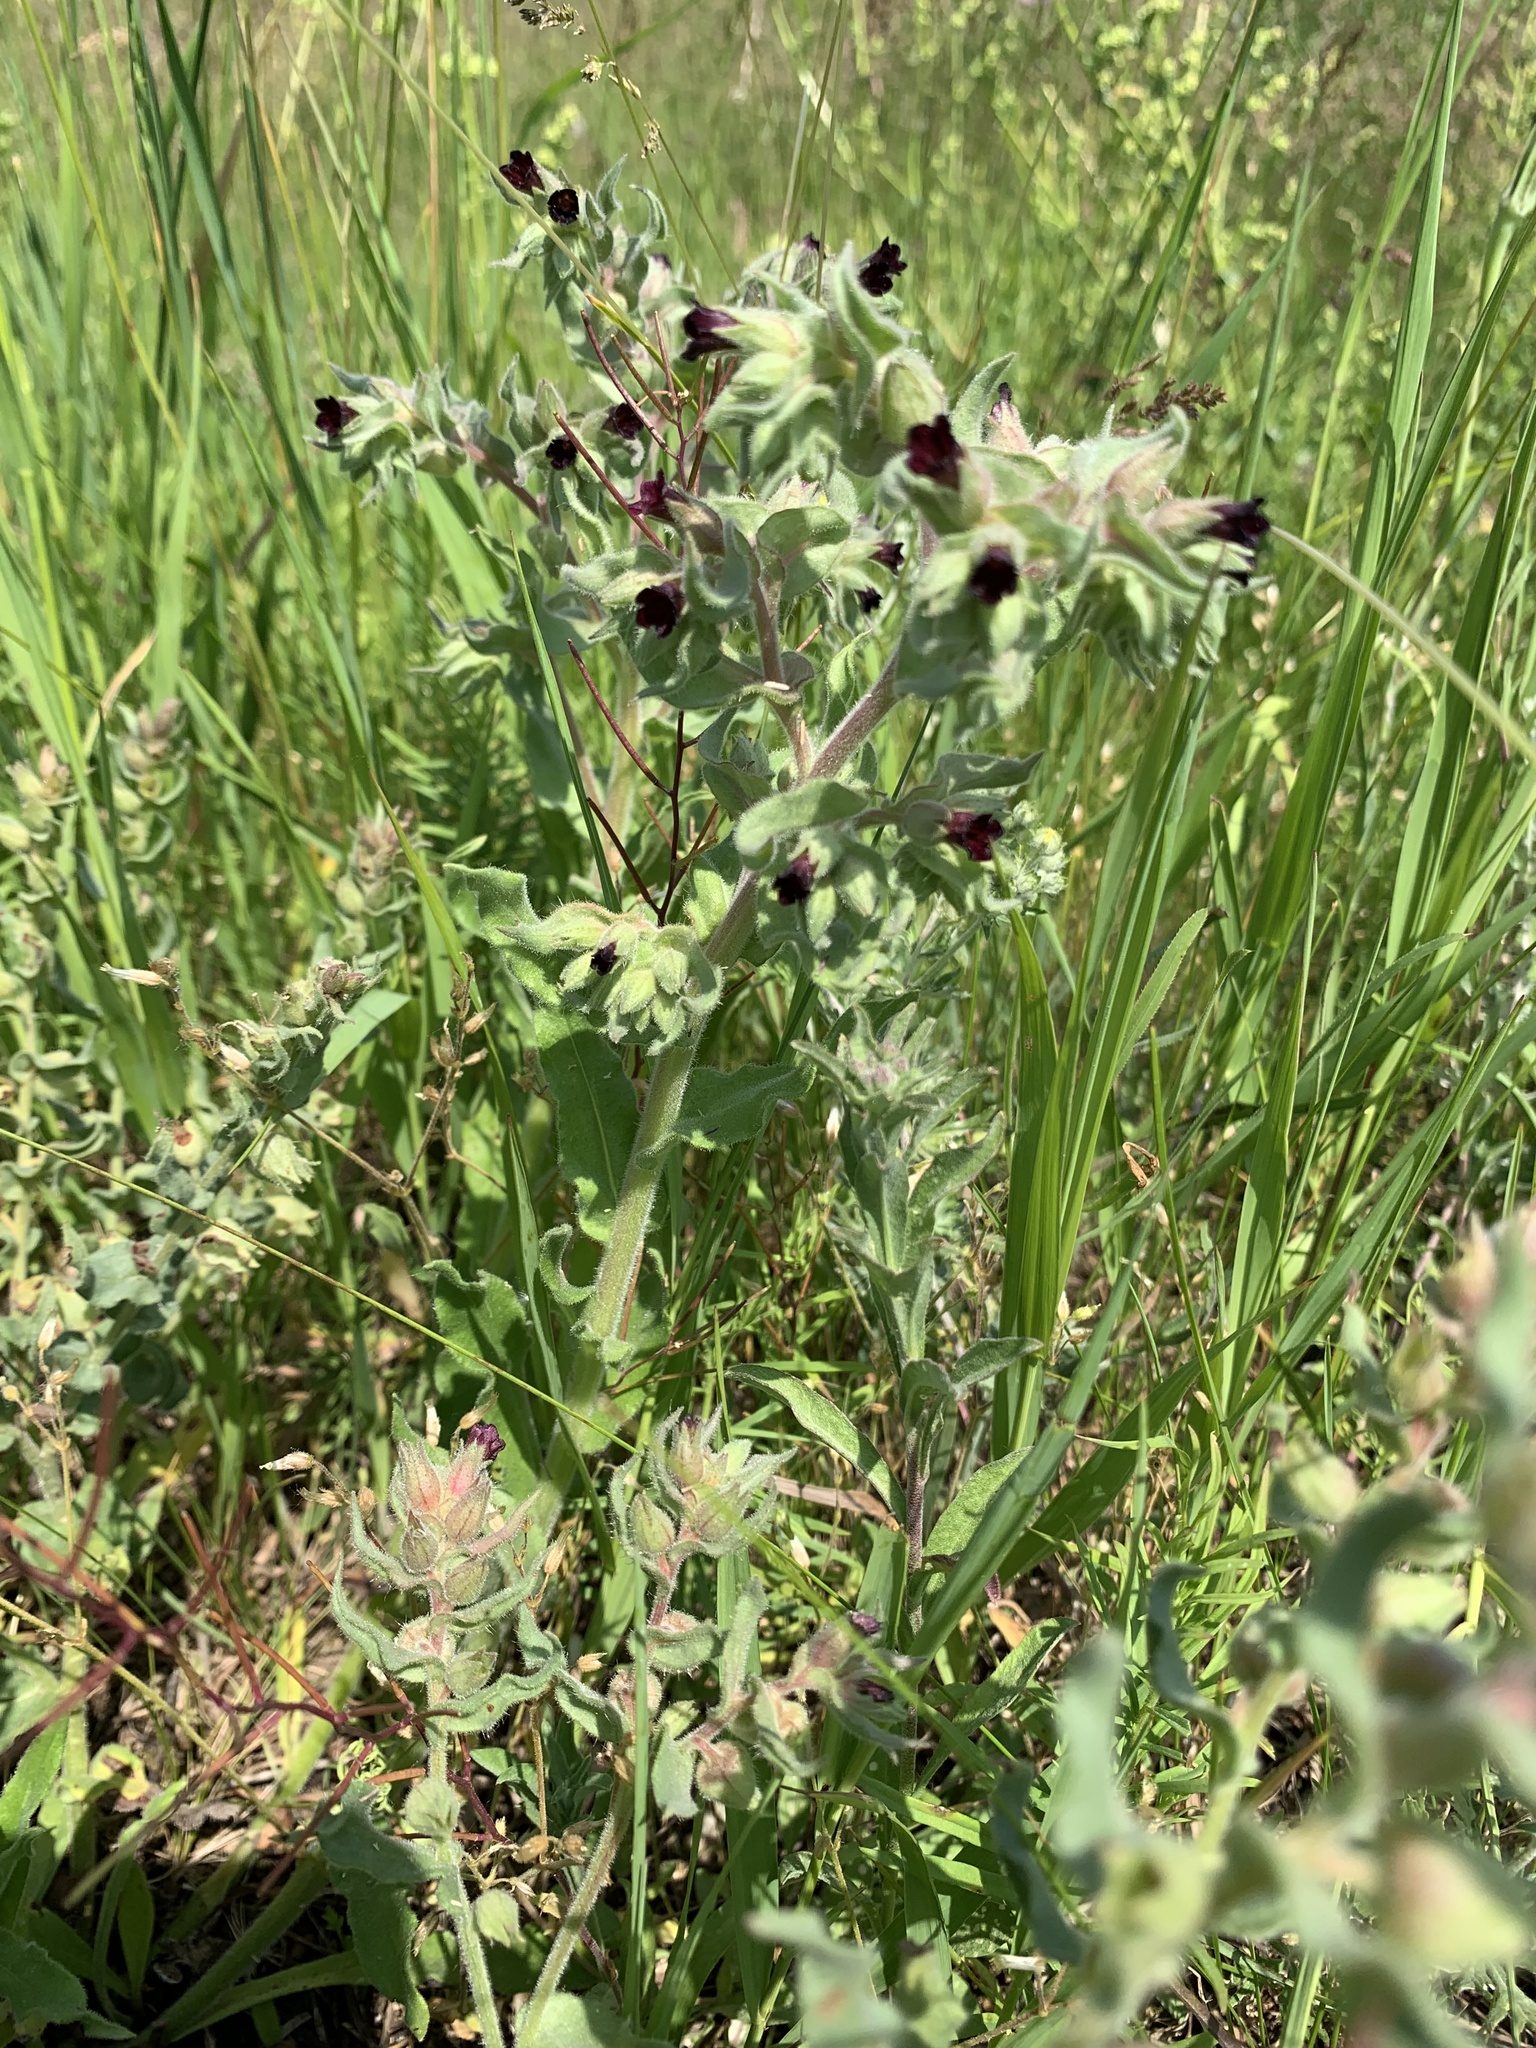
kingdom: Plantae
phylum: Tracheophyta
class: Magnoliopsida
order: Boraginales
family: Boraginaceae
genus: Nonea
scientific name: Nonea pulla
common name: Brown nonea
